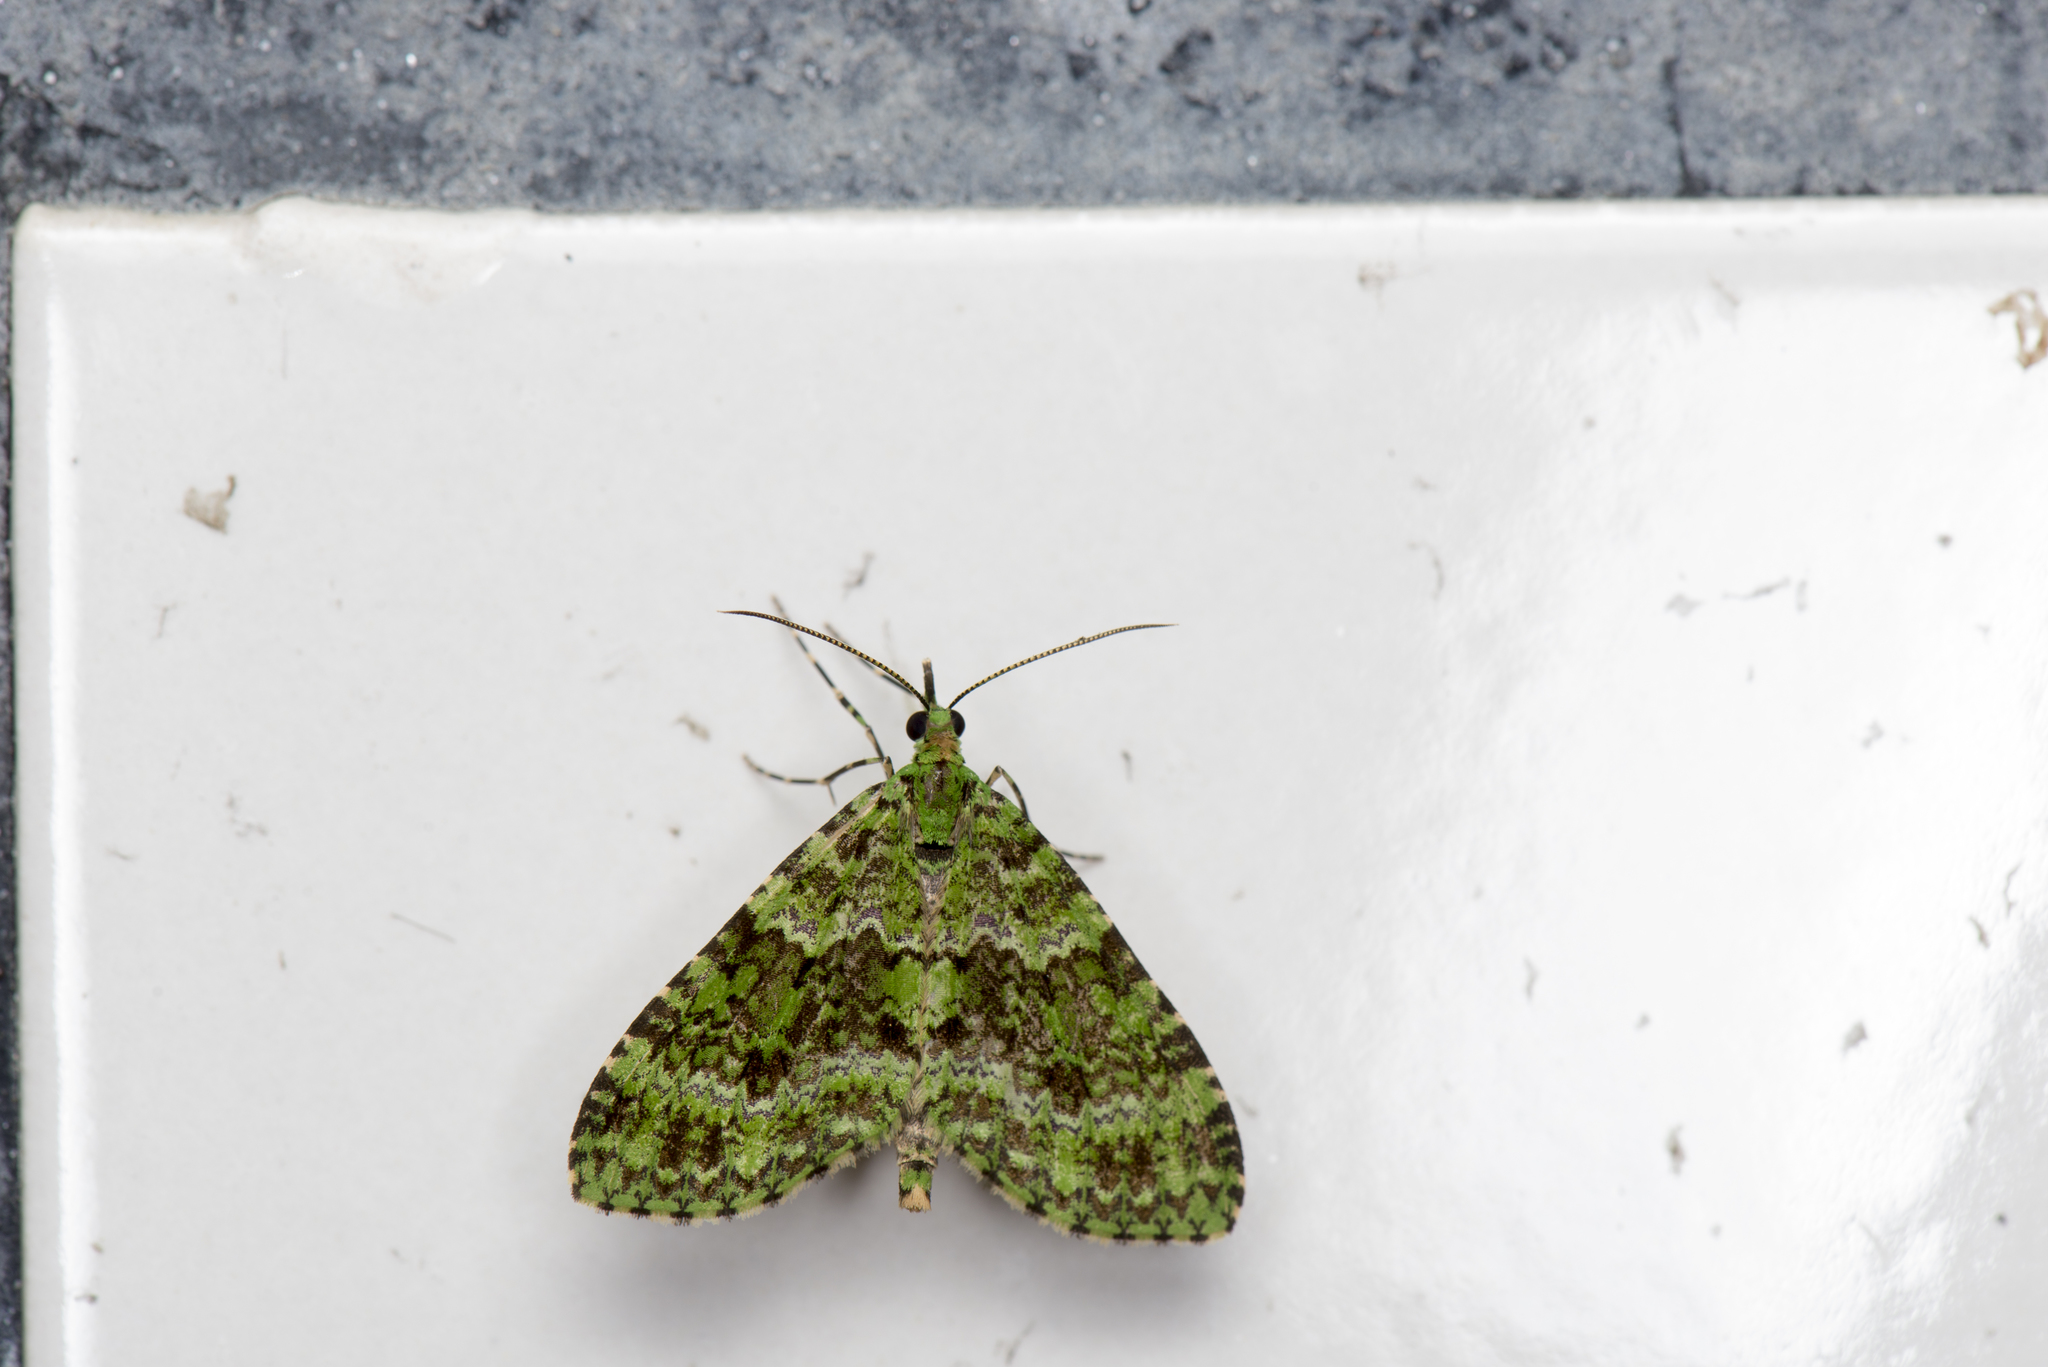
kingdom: Animalia
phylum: Arthropoda
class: Insecta
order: Lepidoptera
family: Geometridae
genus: Tristeirometa
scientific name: Tristeirometa decussata
